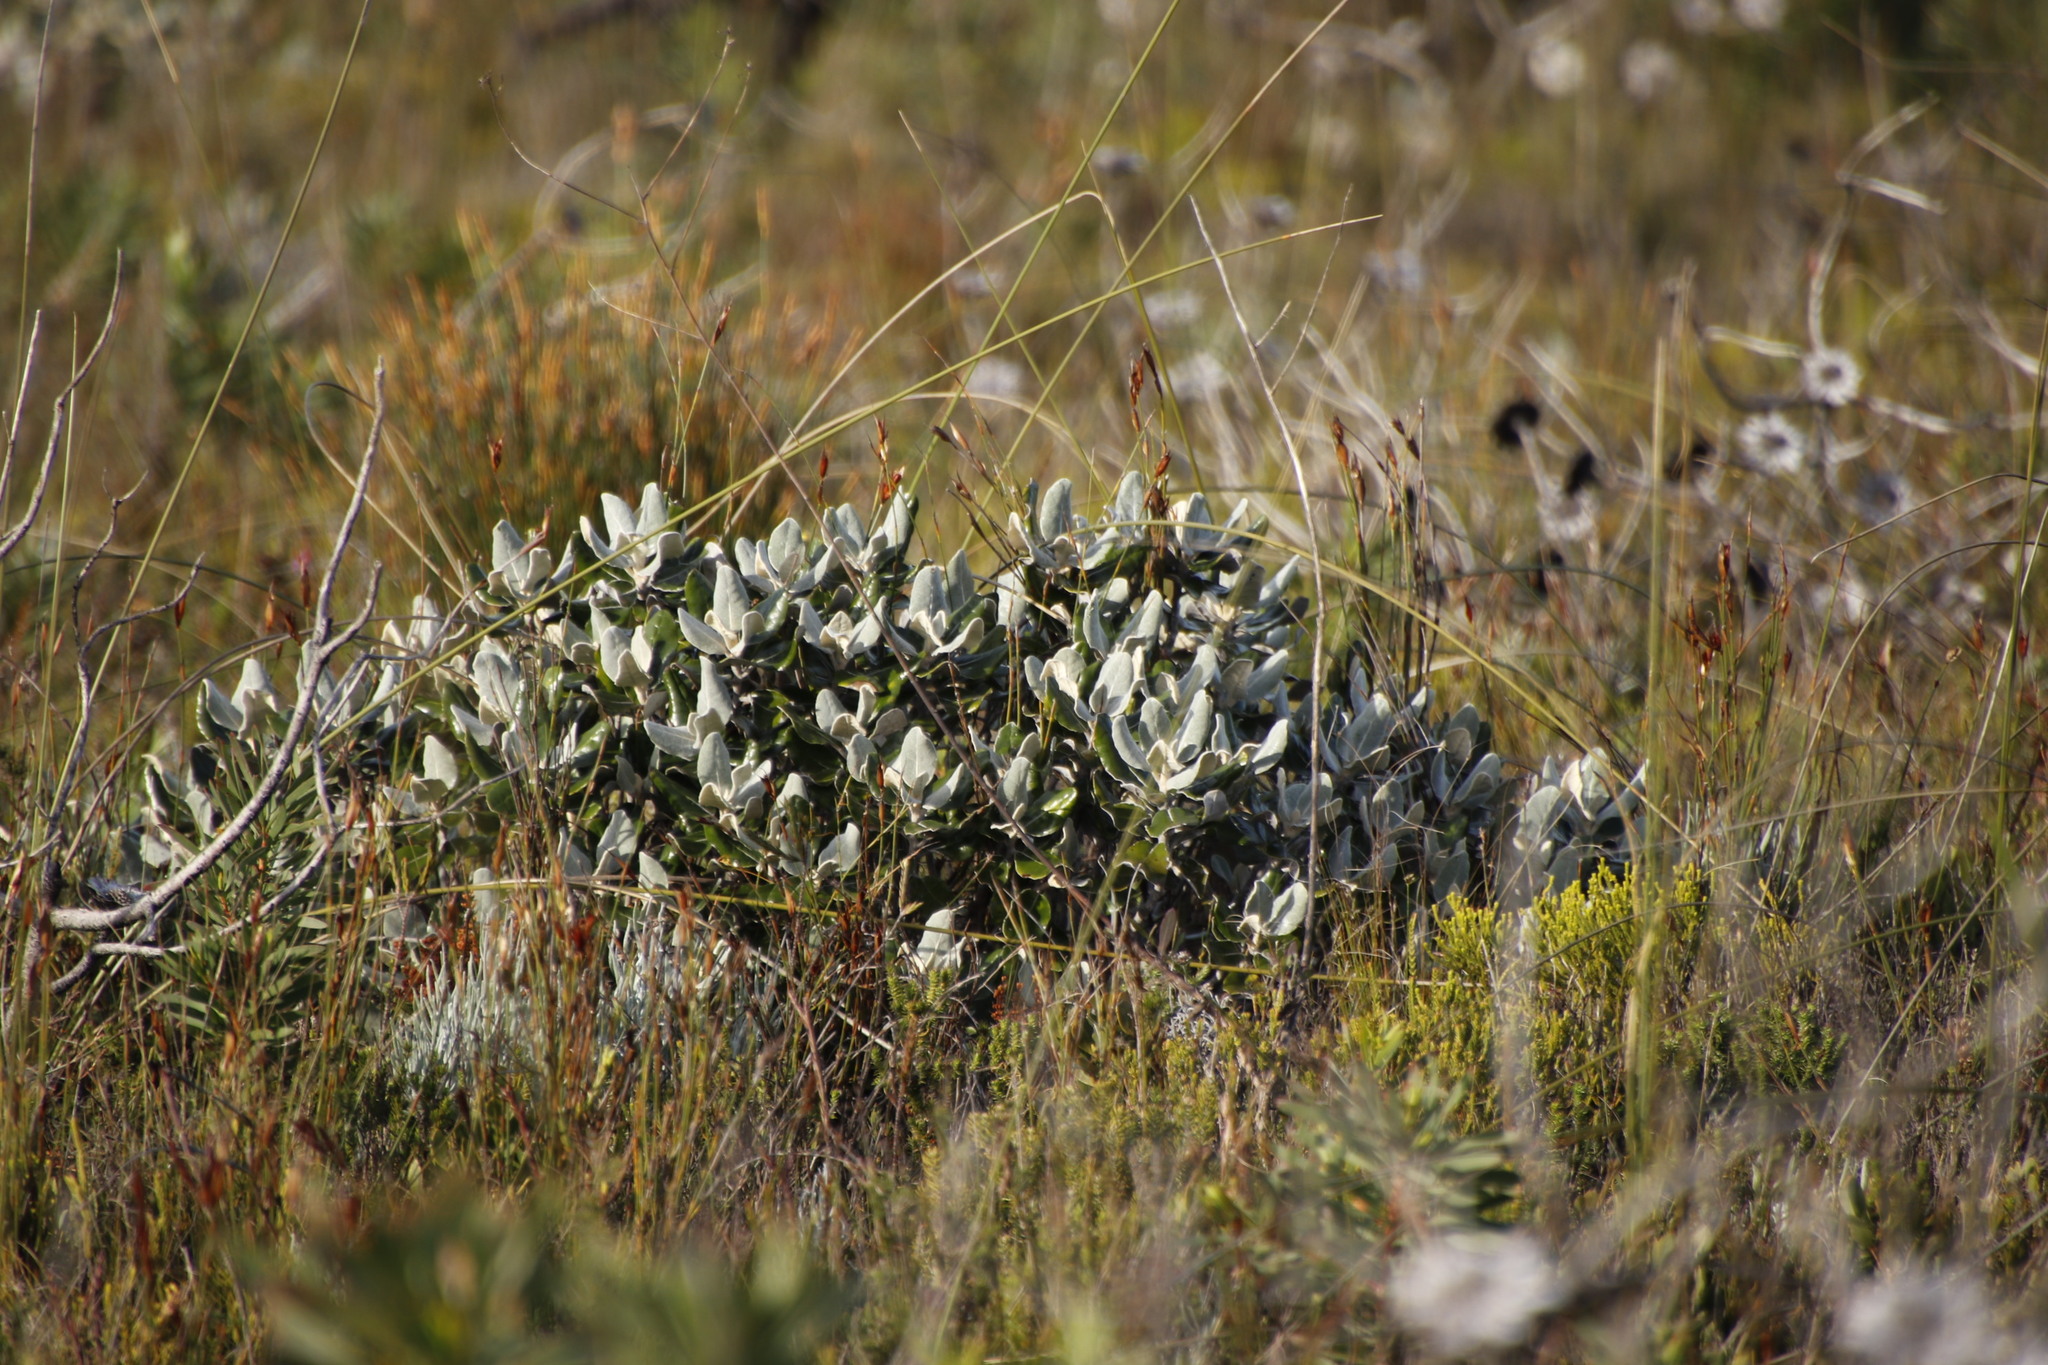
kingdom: Plantae
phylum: Tracheophyta
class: Magnoliopsida
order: Apiales
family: Apiaceae
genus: Hermas
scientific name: Hermas villosa
